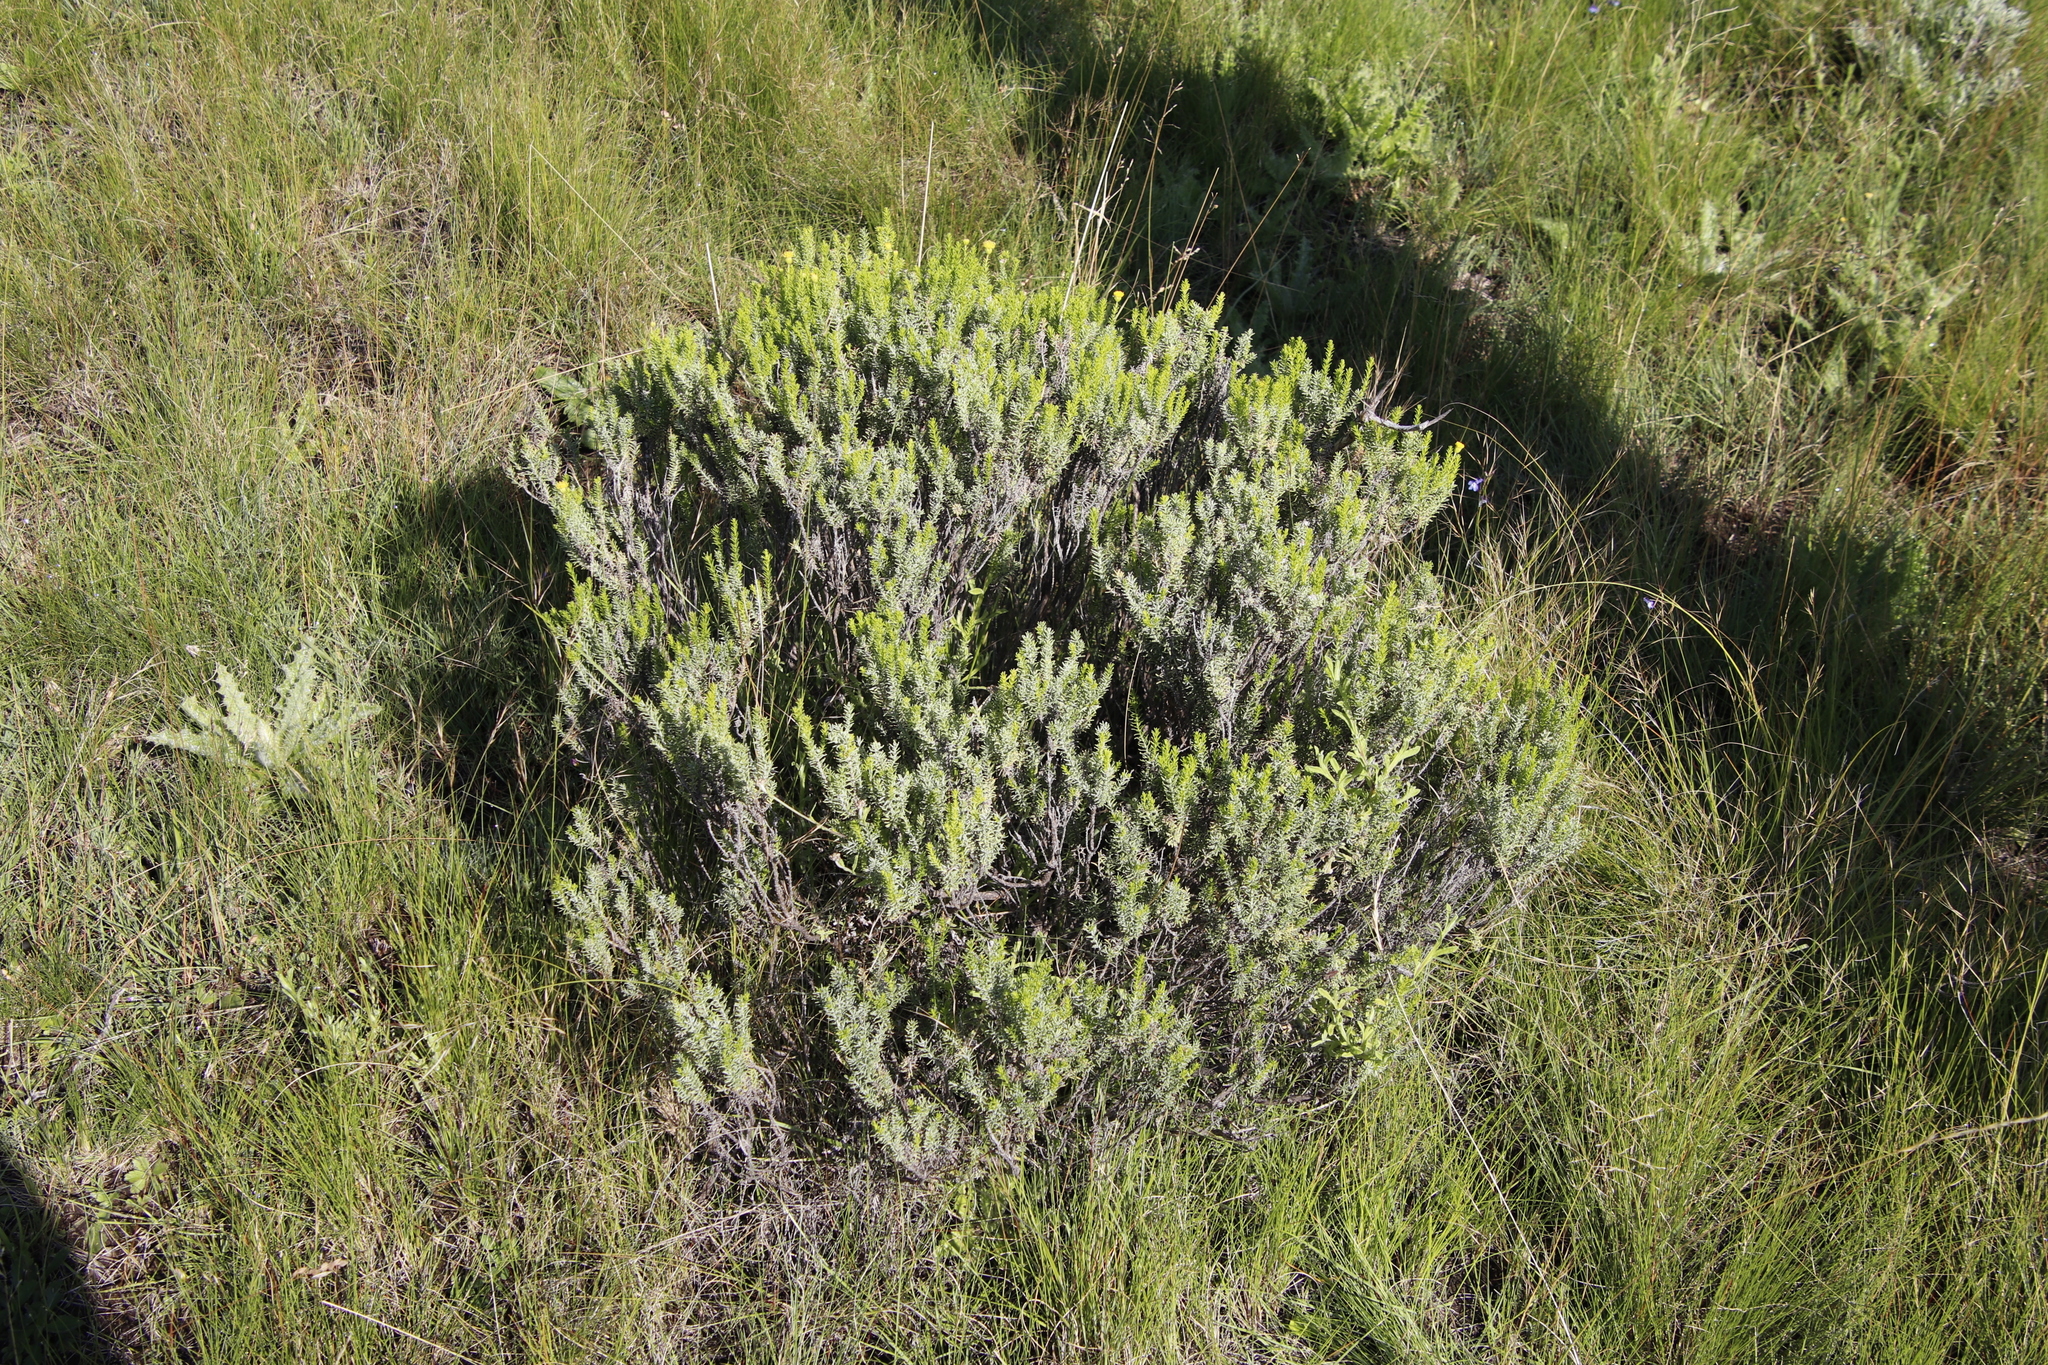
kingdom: Plantae
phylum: Tracheophyta
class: Magnoliopsida
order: Asterales
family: Asteraceae
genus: Chrysocoma
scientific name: Chrysocoma ciliata
